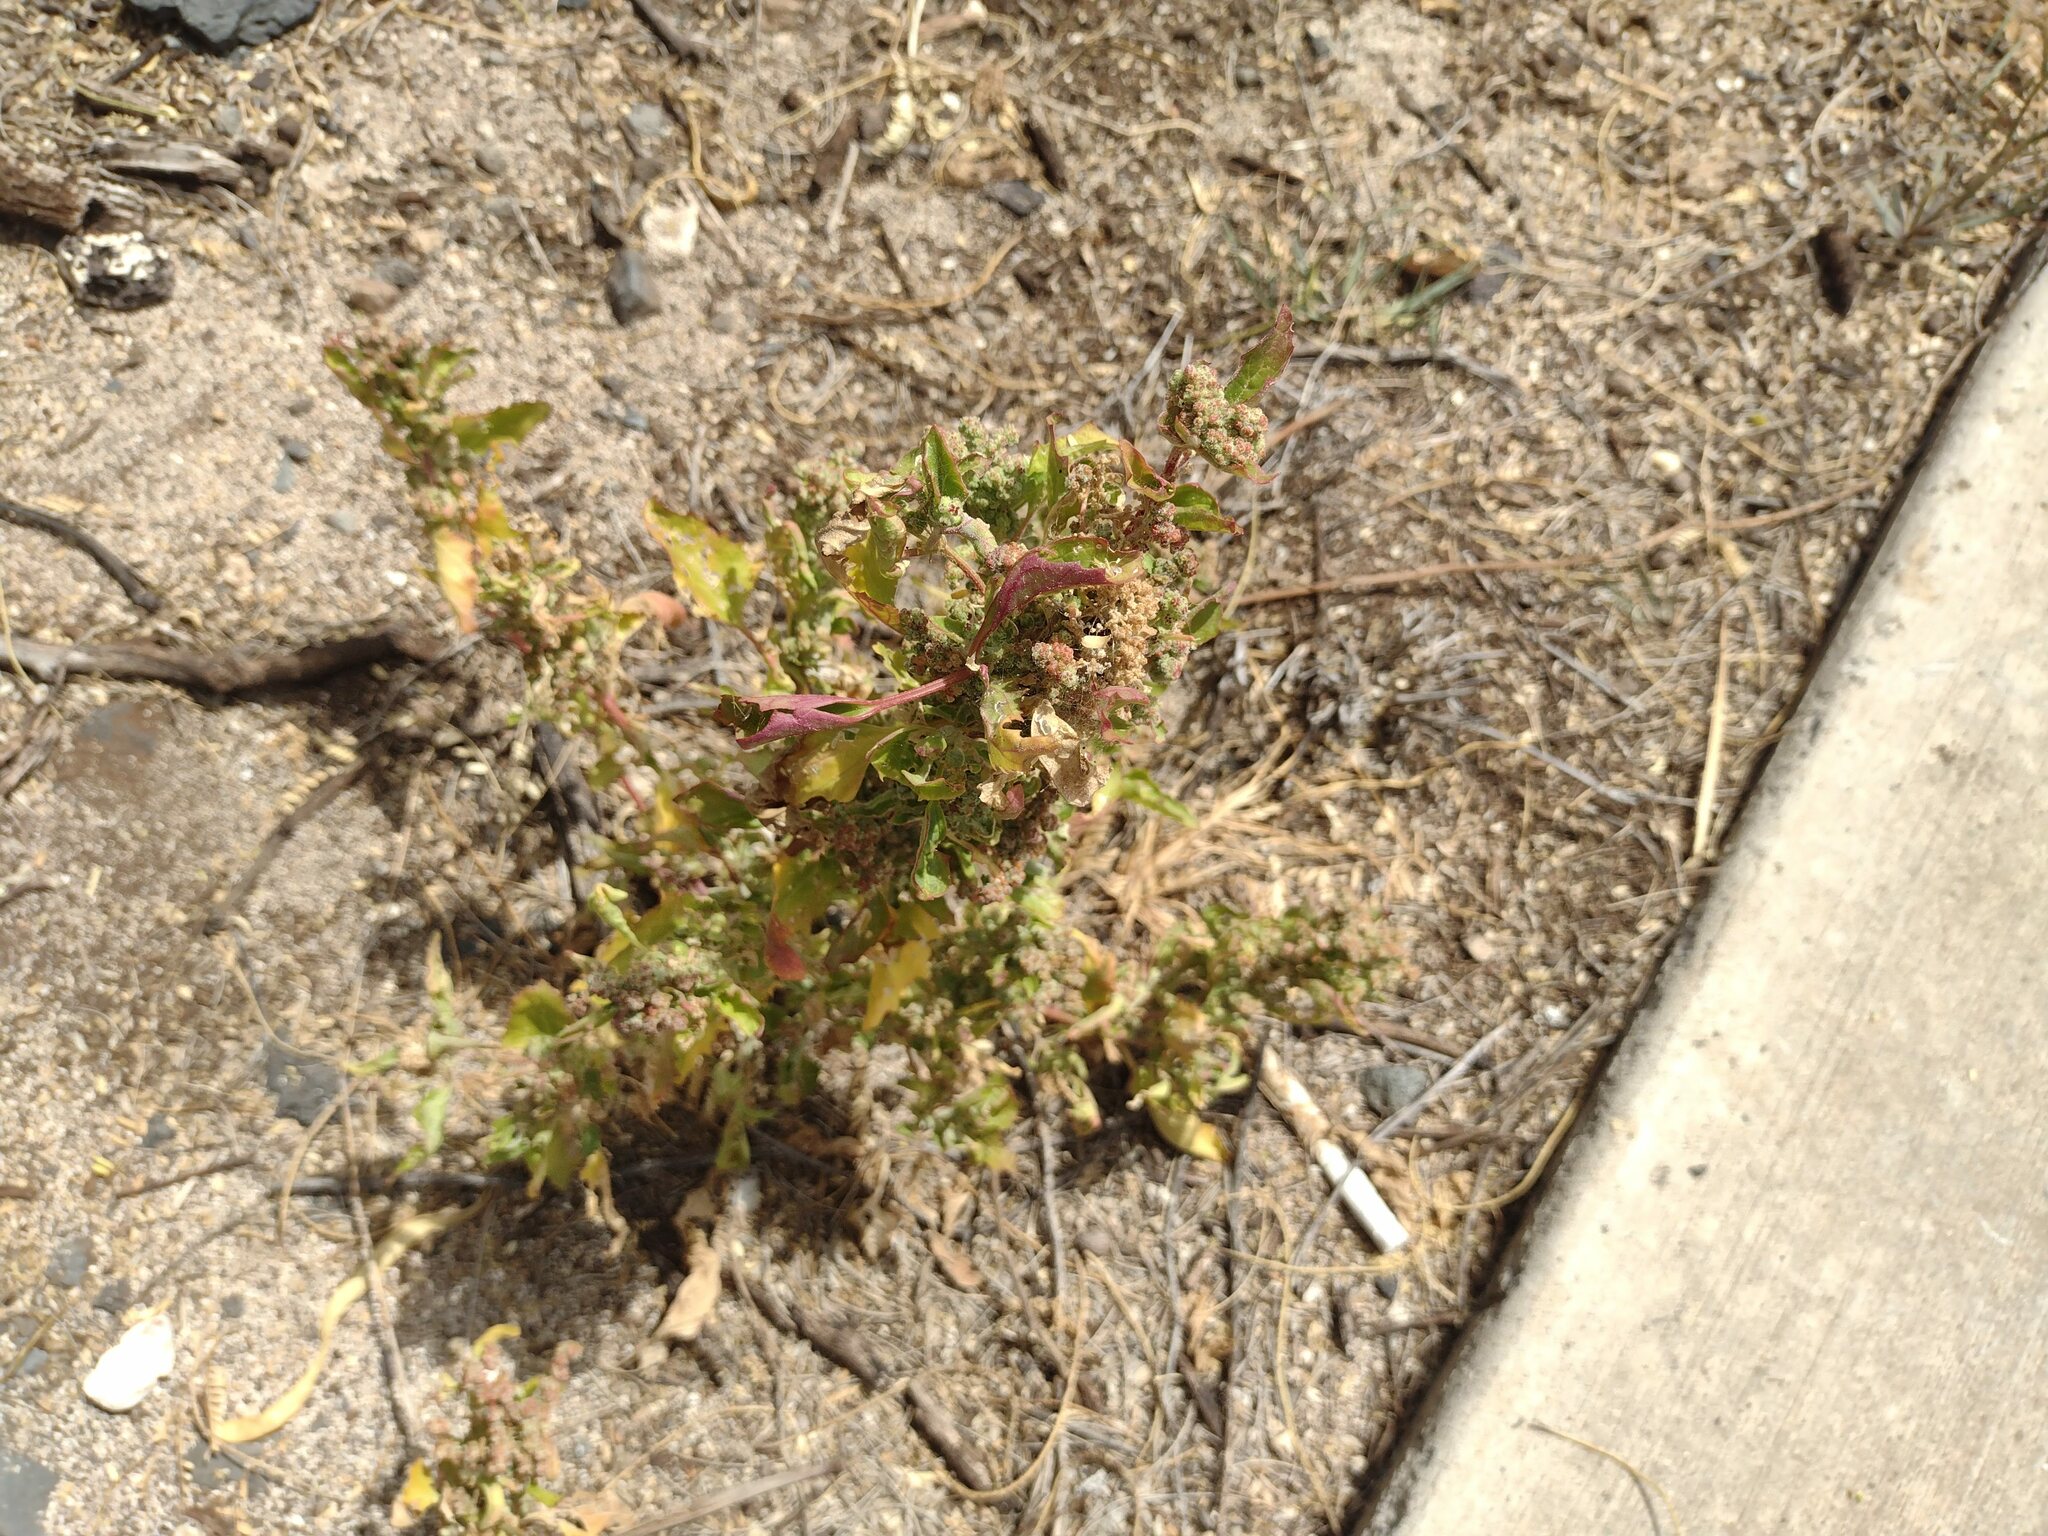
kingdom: Plantae
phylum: Tracheophyta
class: Magnoliopsida
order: Caryophyllales
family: Amaranthaceae
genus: Chenopodiastrum
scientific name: Chenopodiastrum murale
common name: Sowbane
